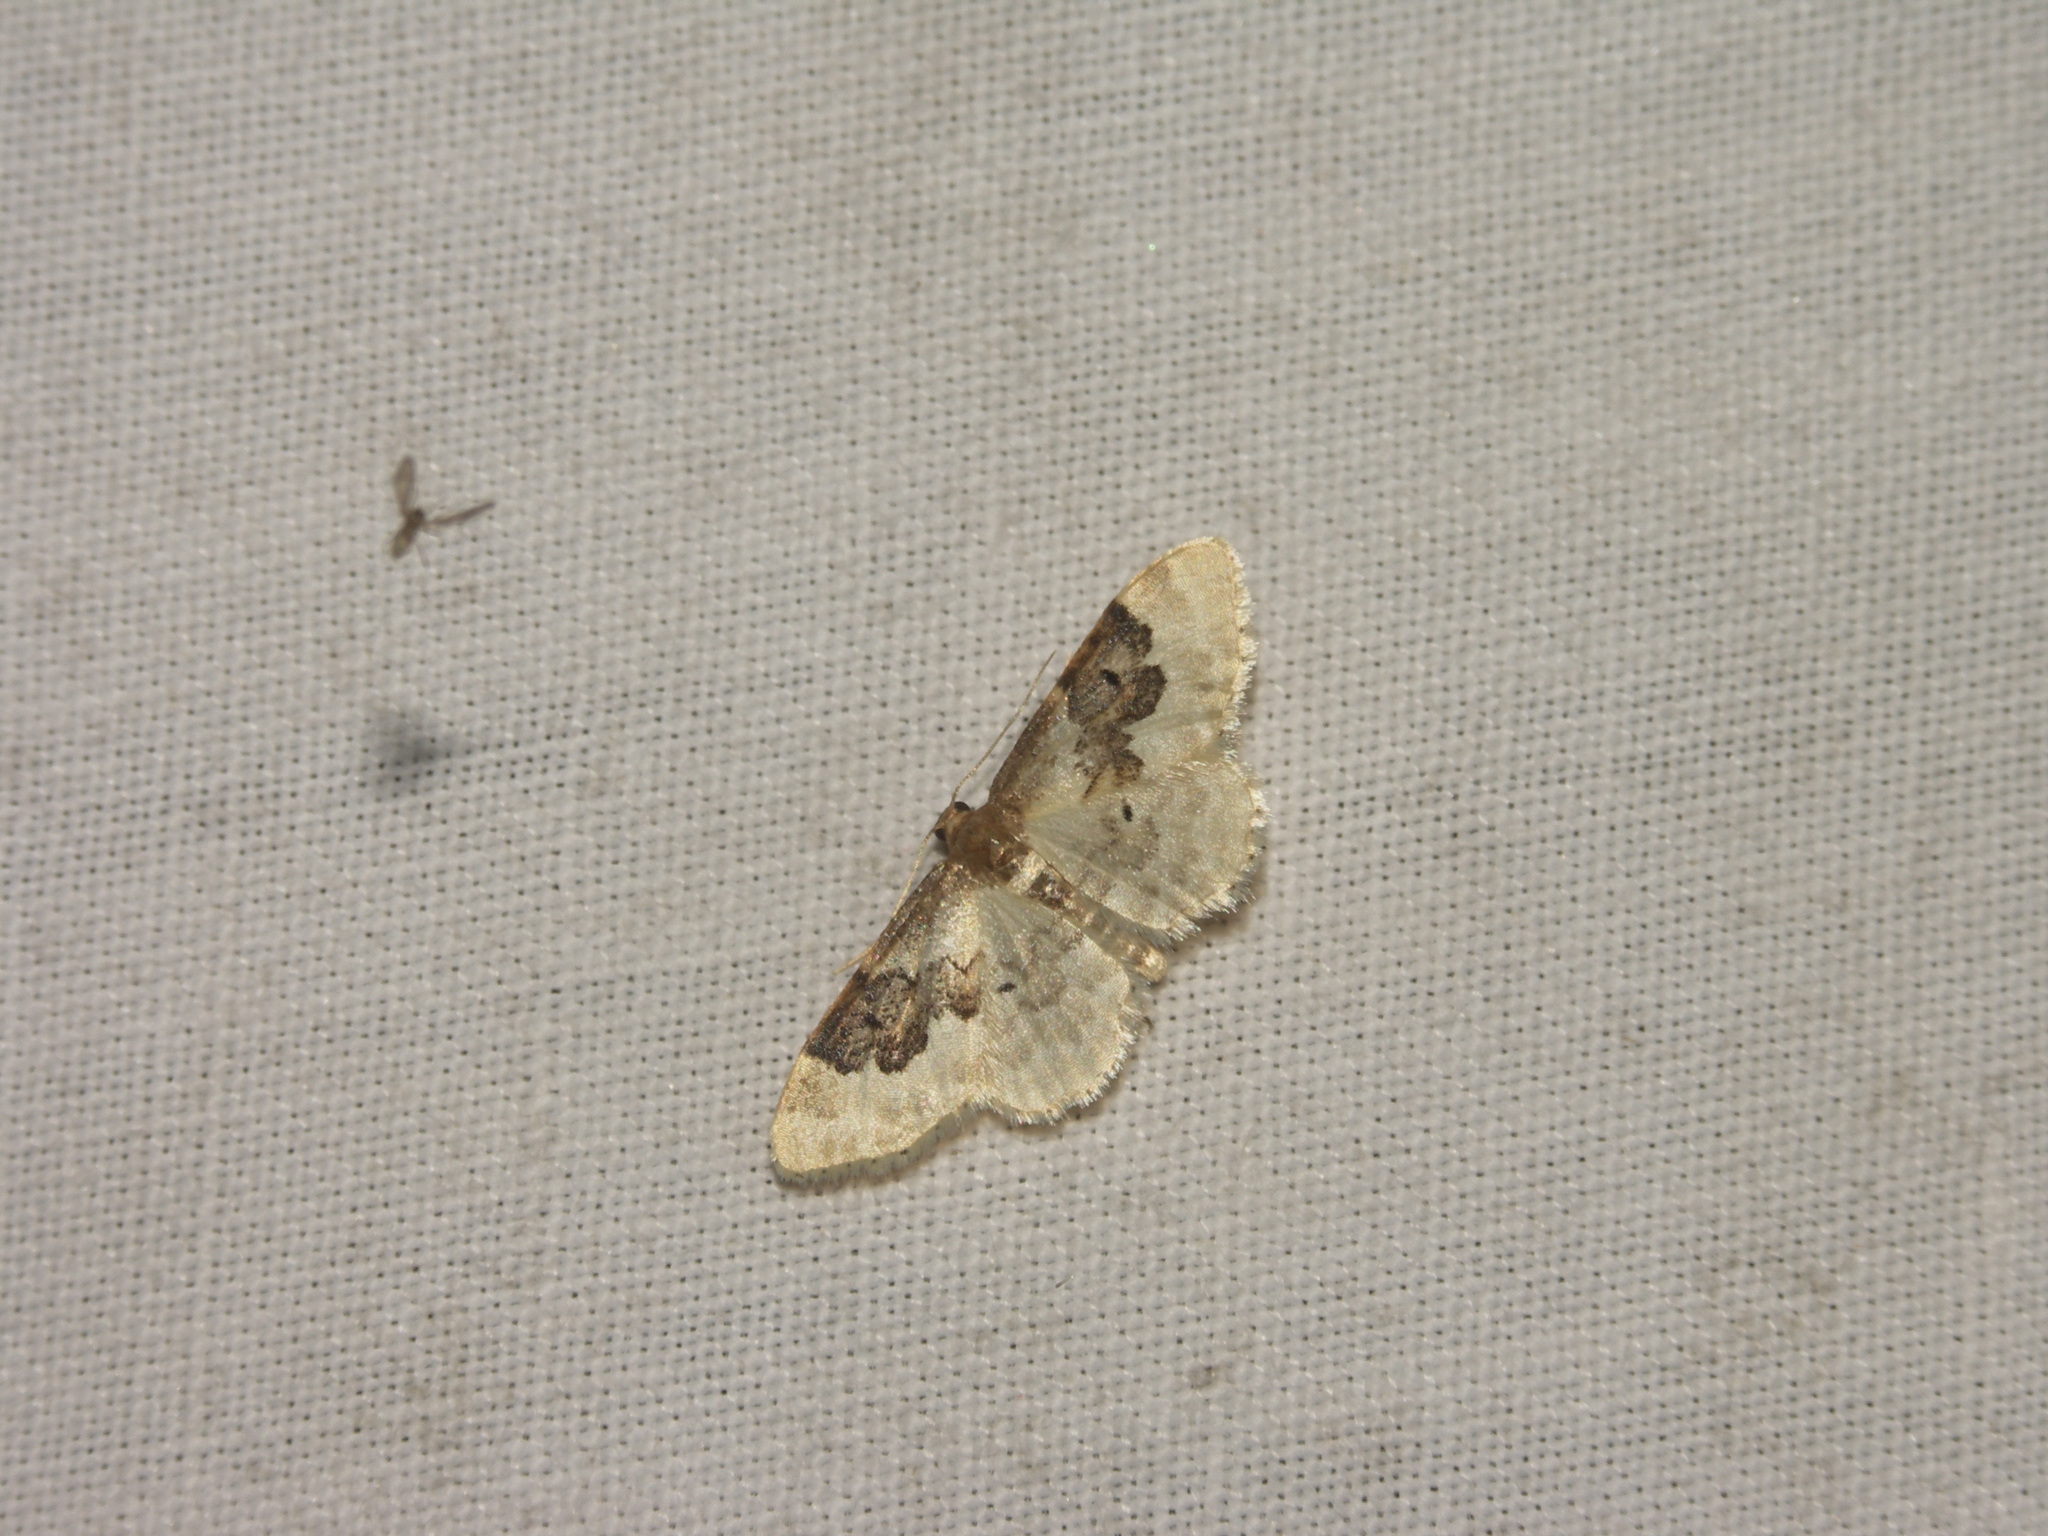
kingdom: Animalia
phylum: Arthropoda
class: Insecta
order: Lepidoptera
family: Geometridae
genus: Idaea
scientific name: Idaea rusticata
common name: Least carpet
